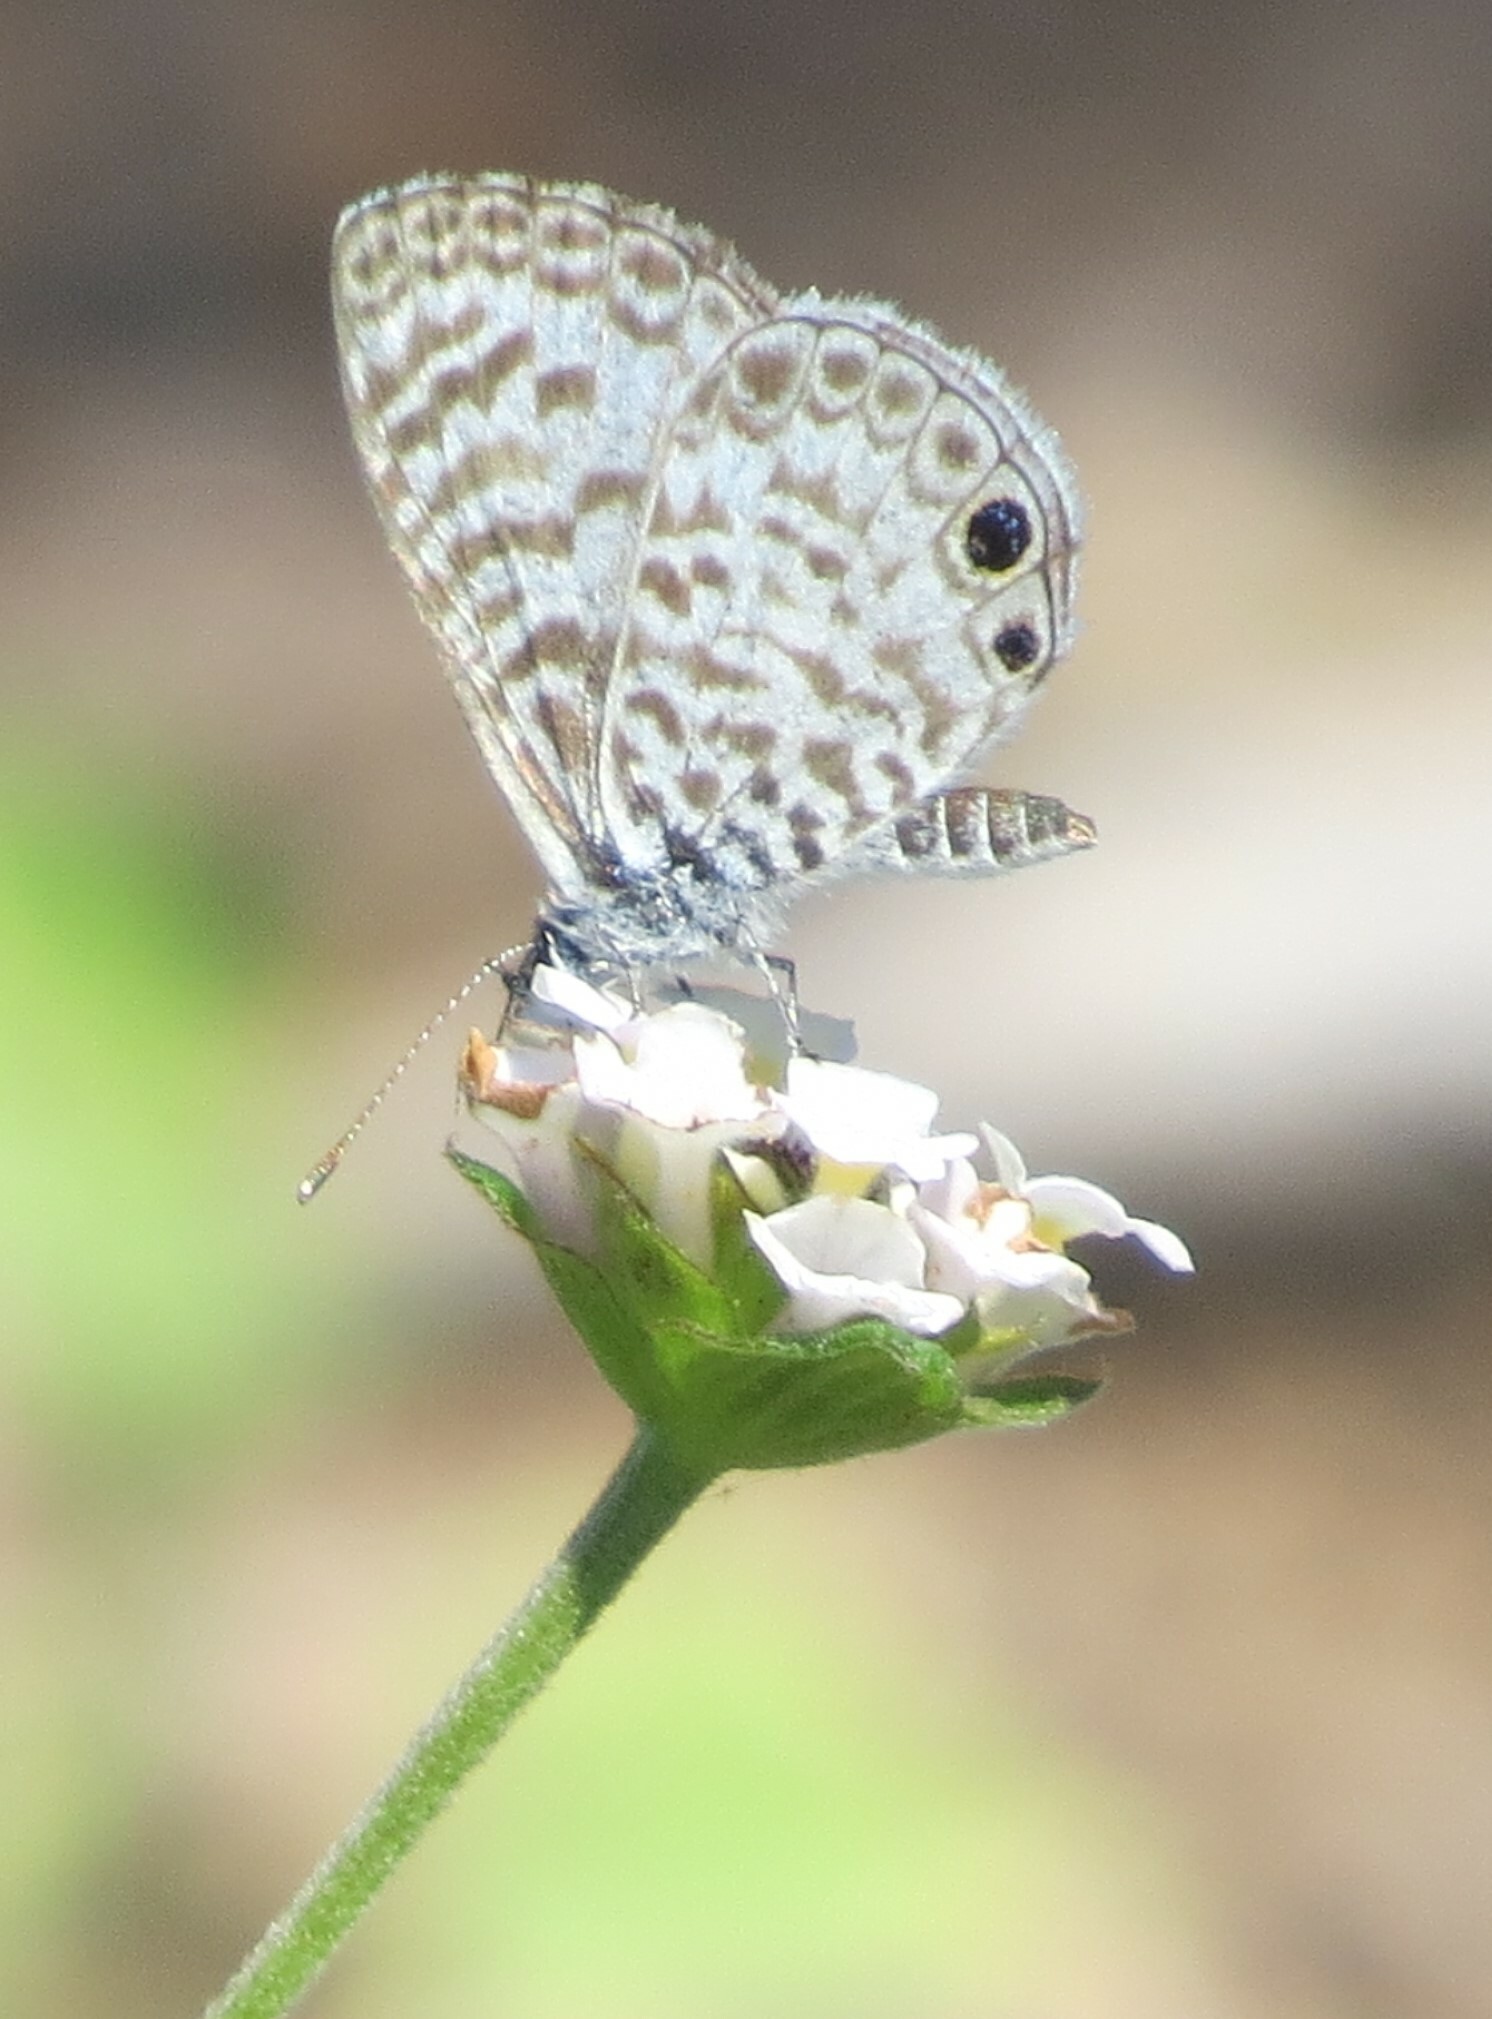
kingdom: Animalia
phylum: Arthropoda
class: Insecta
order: Lepidoptera
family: Lycaenidae
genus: Leptotes
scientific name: Leptotes cassius
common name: Cassius blue
